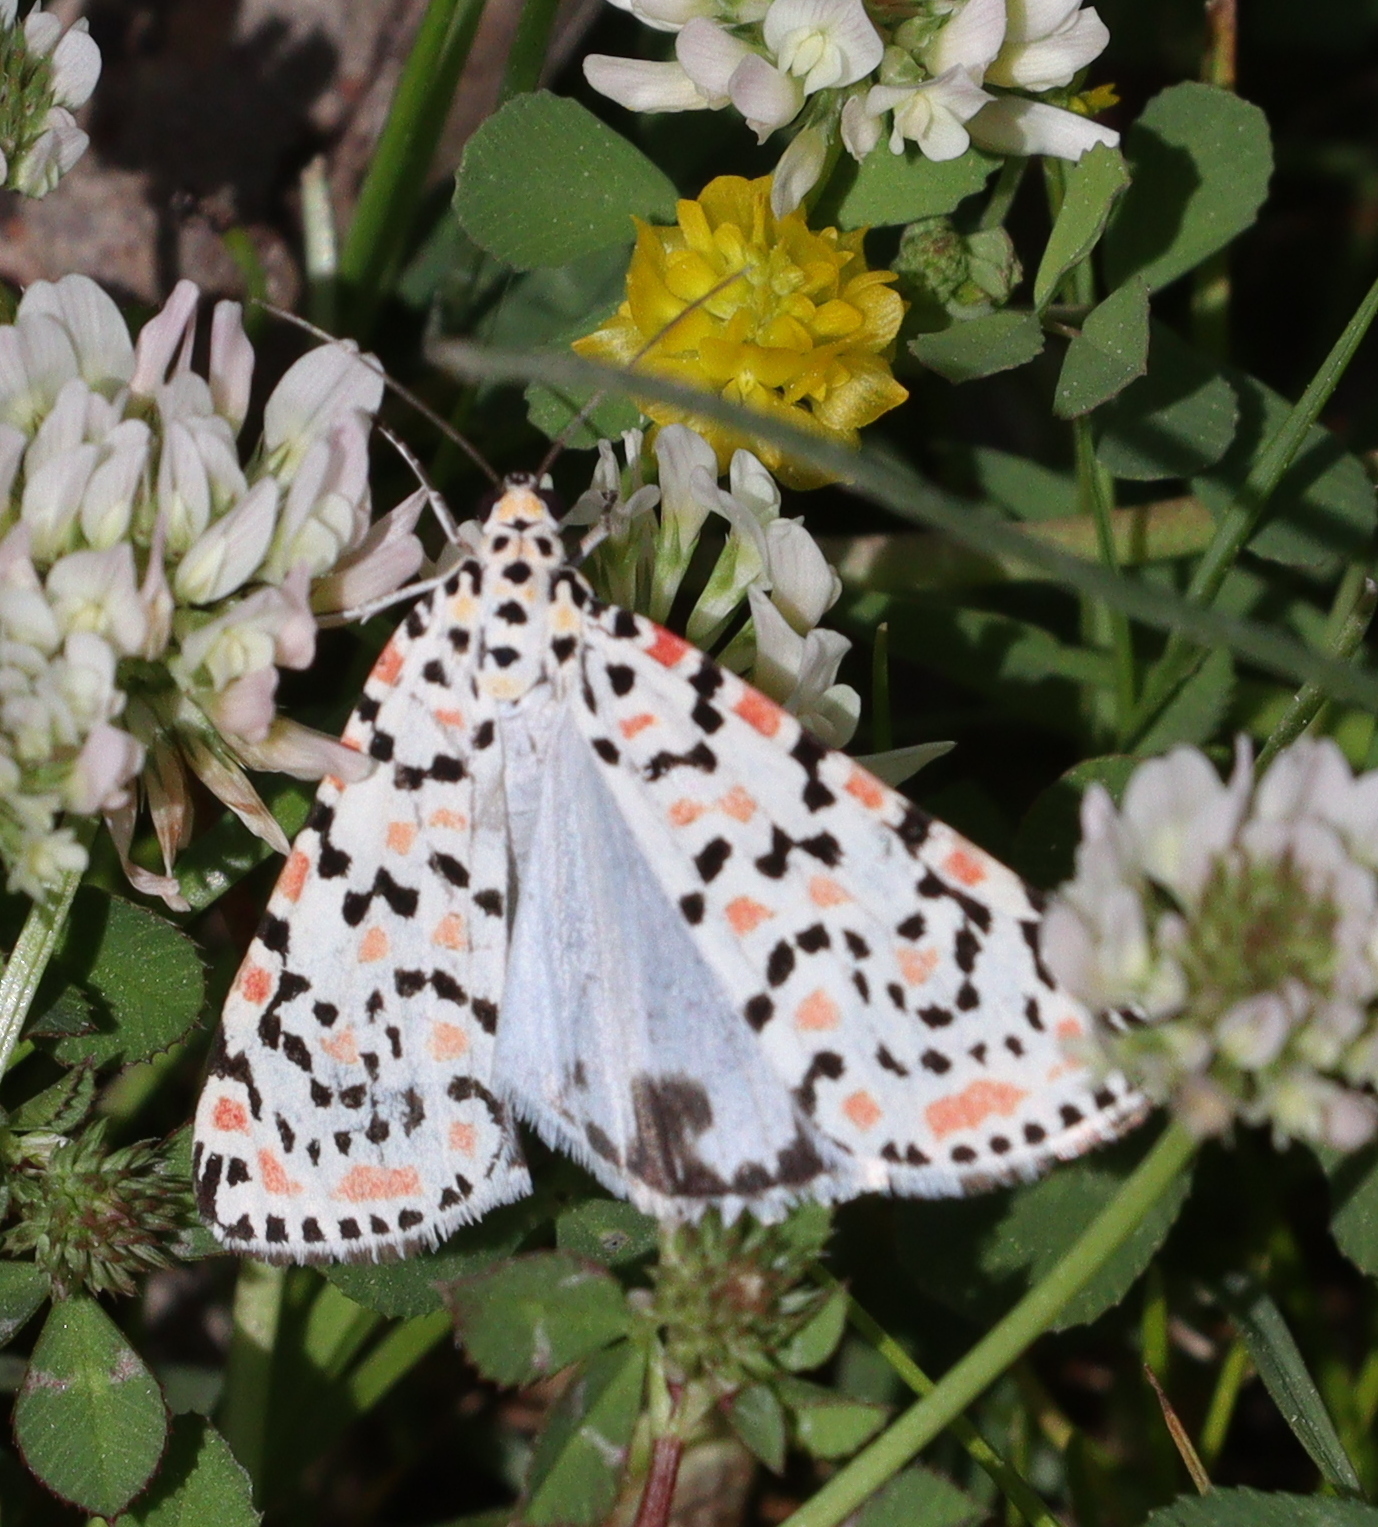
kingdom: Animalia
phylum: Arthropoda
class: Insecta
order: Lepidoptera
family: Erebidae
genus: Utetheisa
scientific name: Utetheisa pulchella
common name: Crimson speckled
